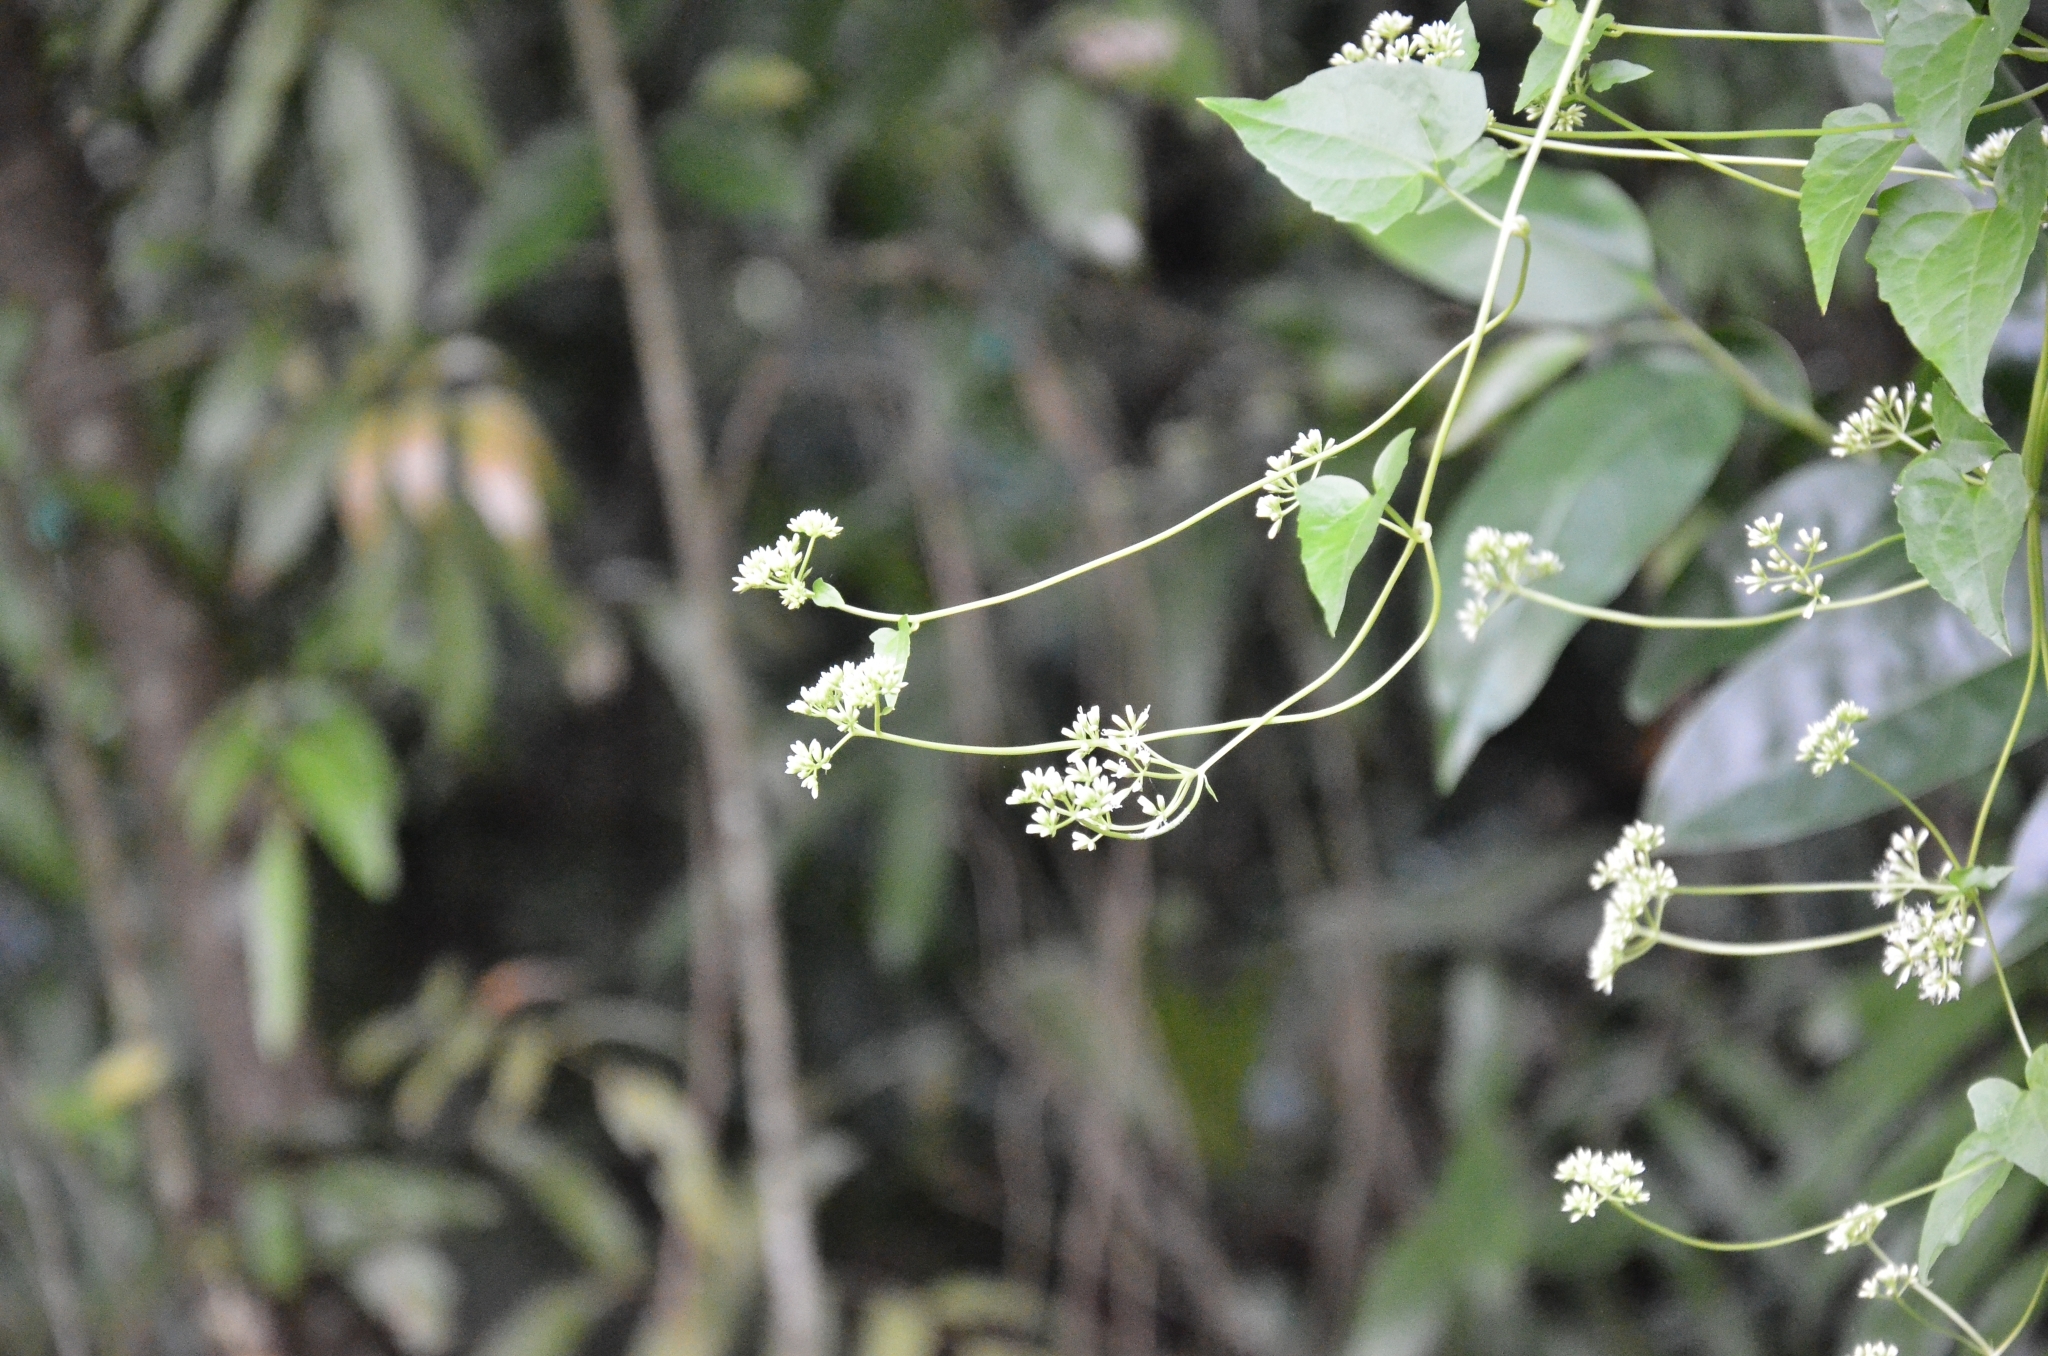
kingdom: Plantae
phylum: Tracheophyta
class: Magnoliopsida
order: Asterales
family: Asteraceae
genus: Mikania
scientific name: Mikania micrantha
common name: Mile-a-minute
